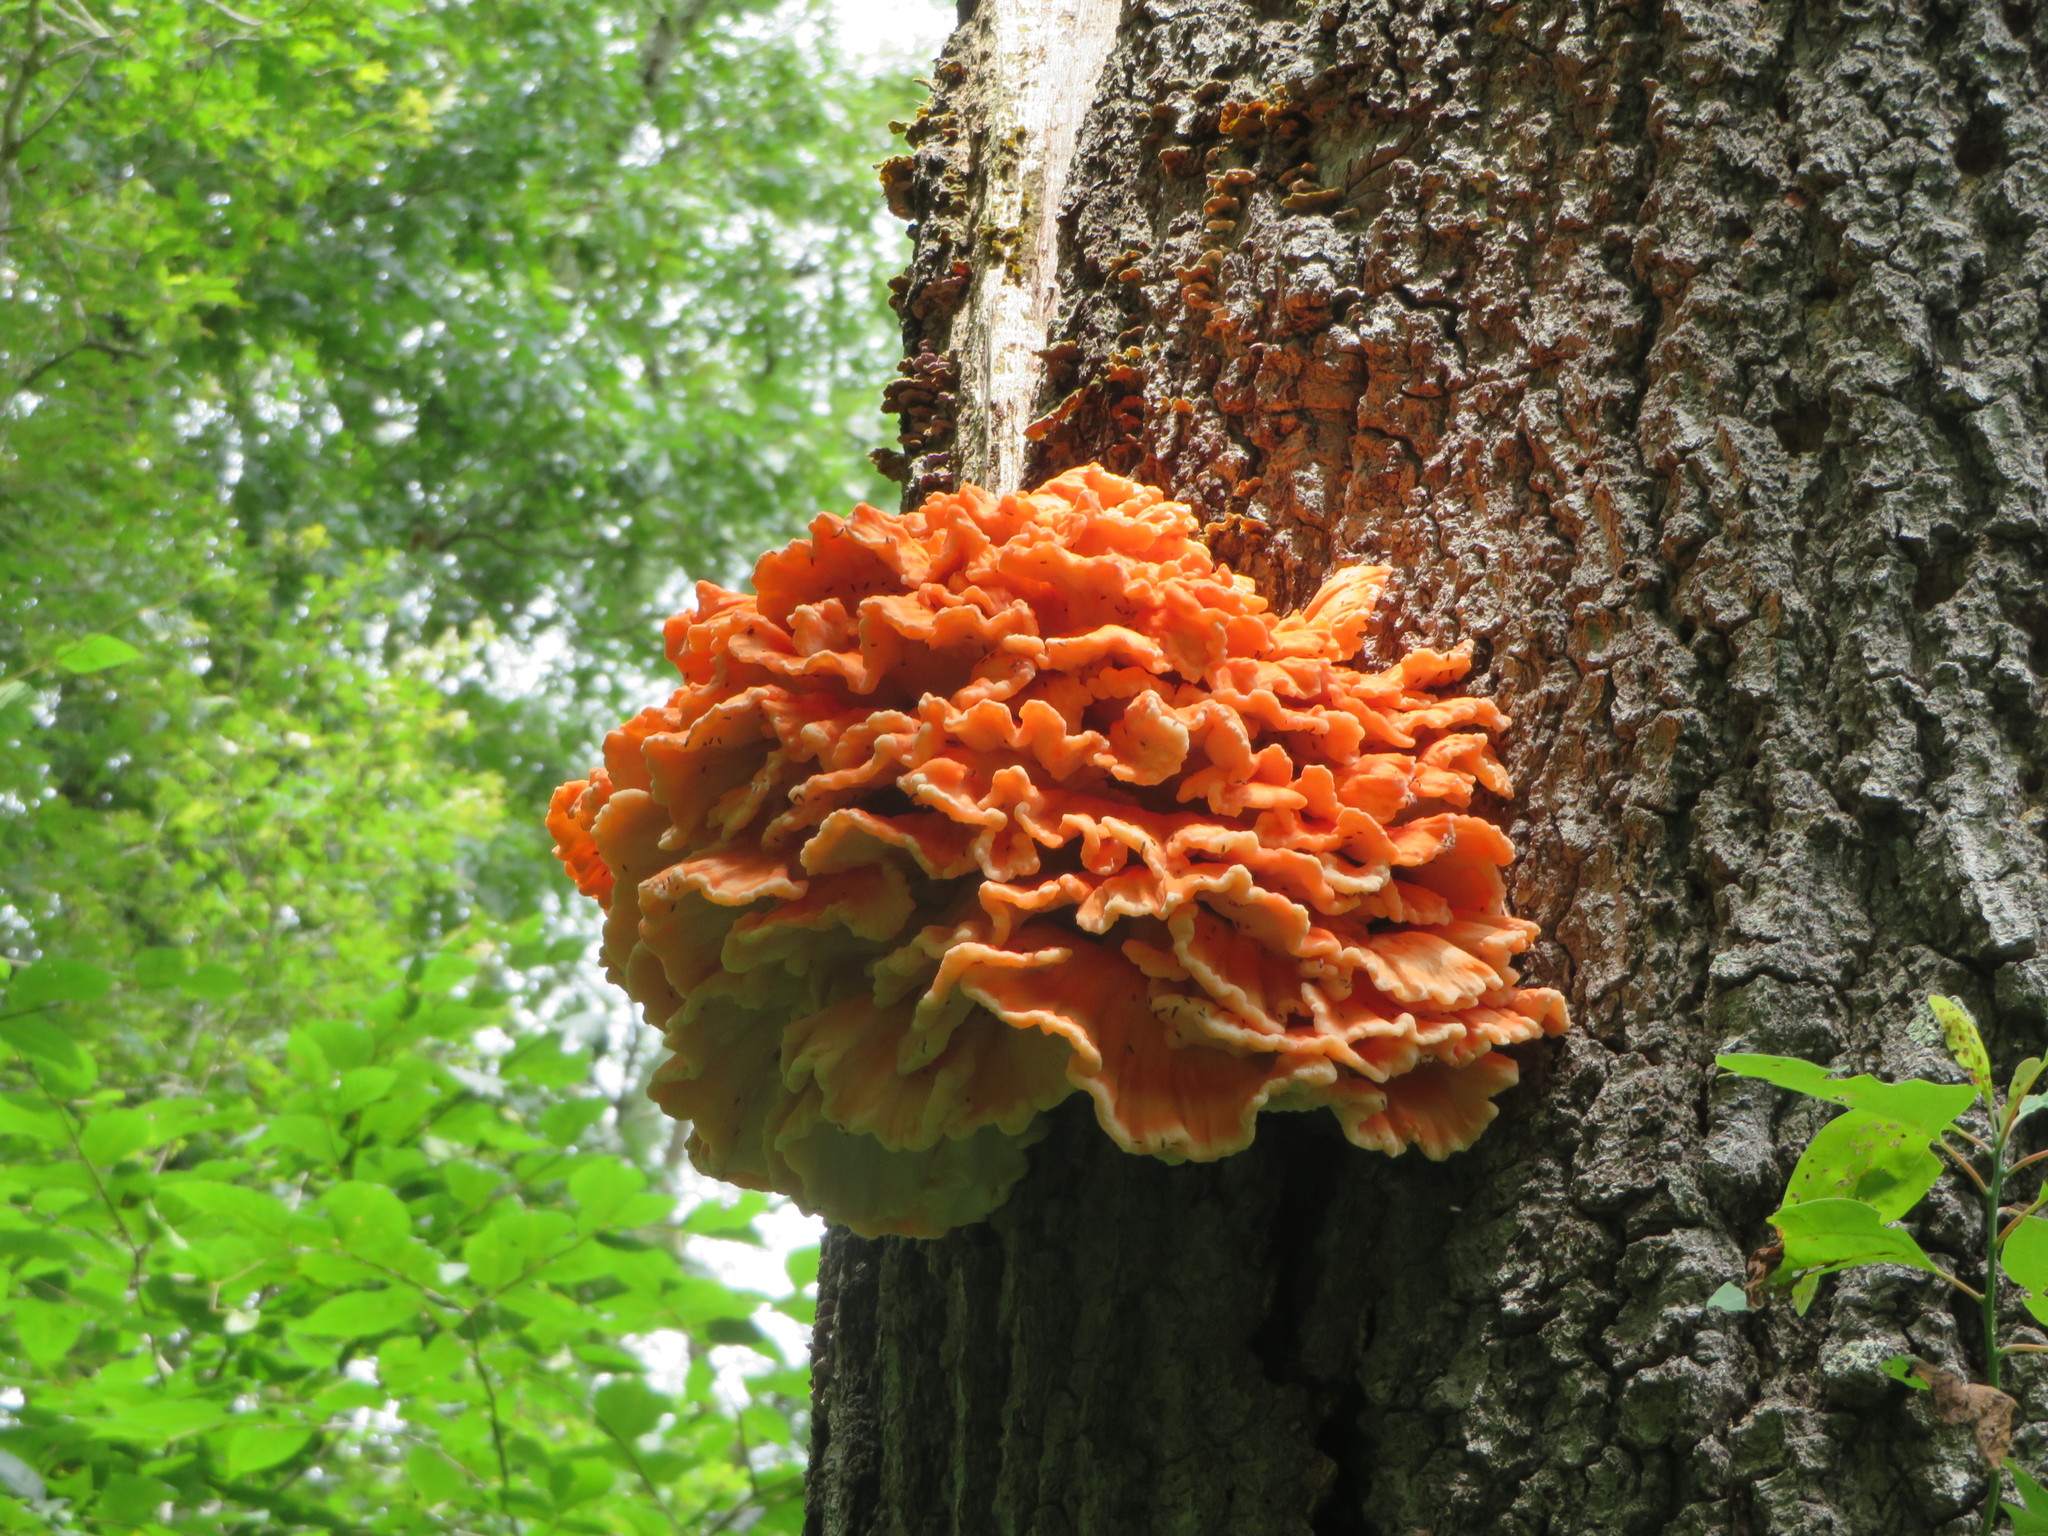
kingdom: Fungi
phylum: Basidiomycota
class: Agaricomycetes
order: Polyporales
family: Laetiporaceae
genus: Laetiporus
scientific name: Laetiporus sulphureus
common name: Chicken of the woods
